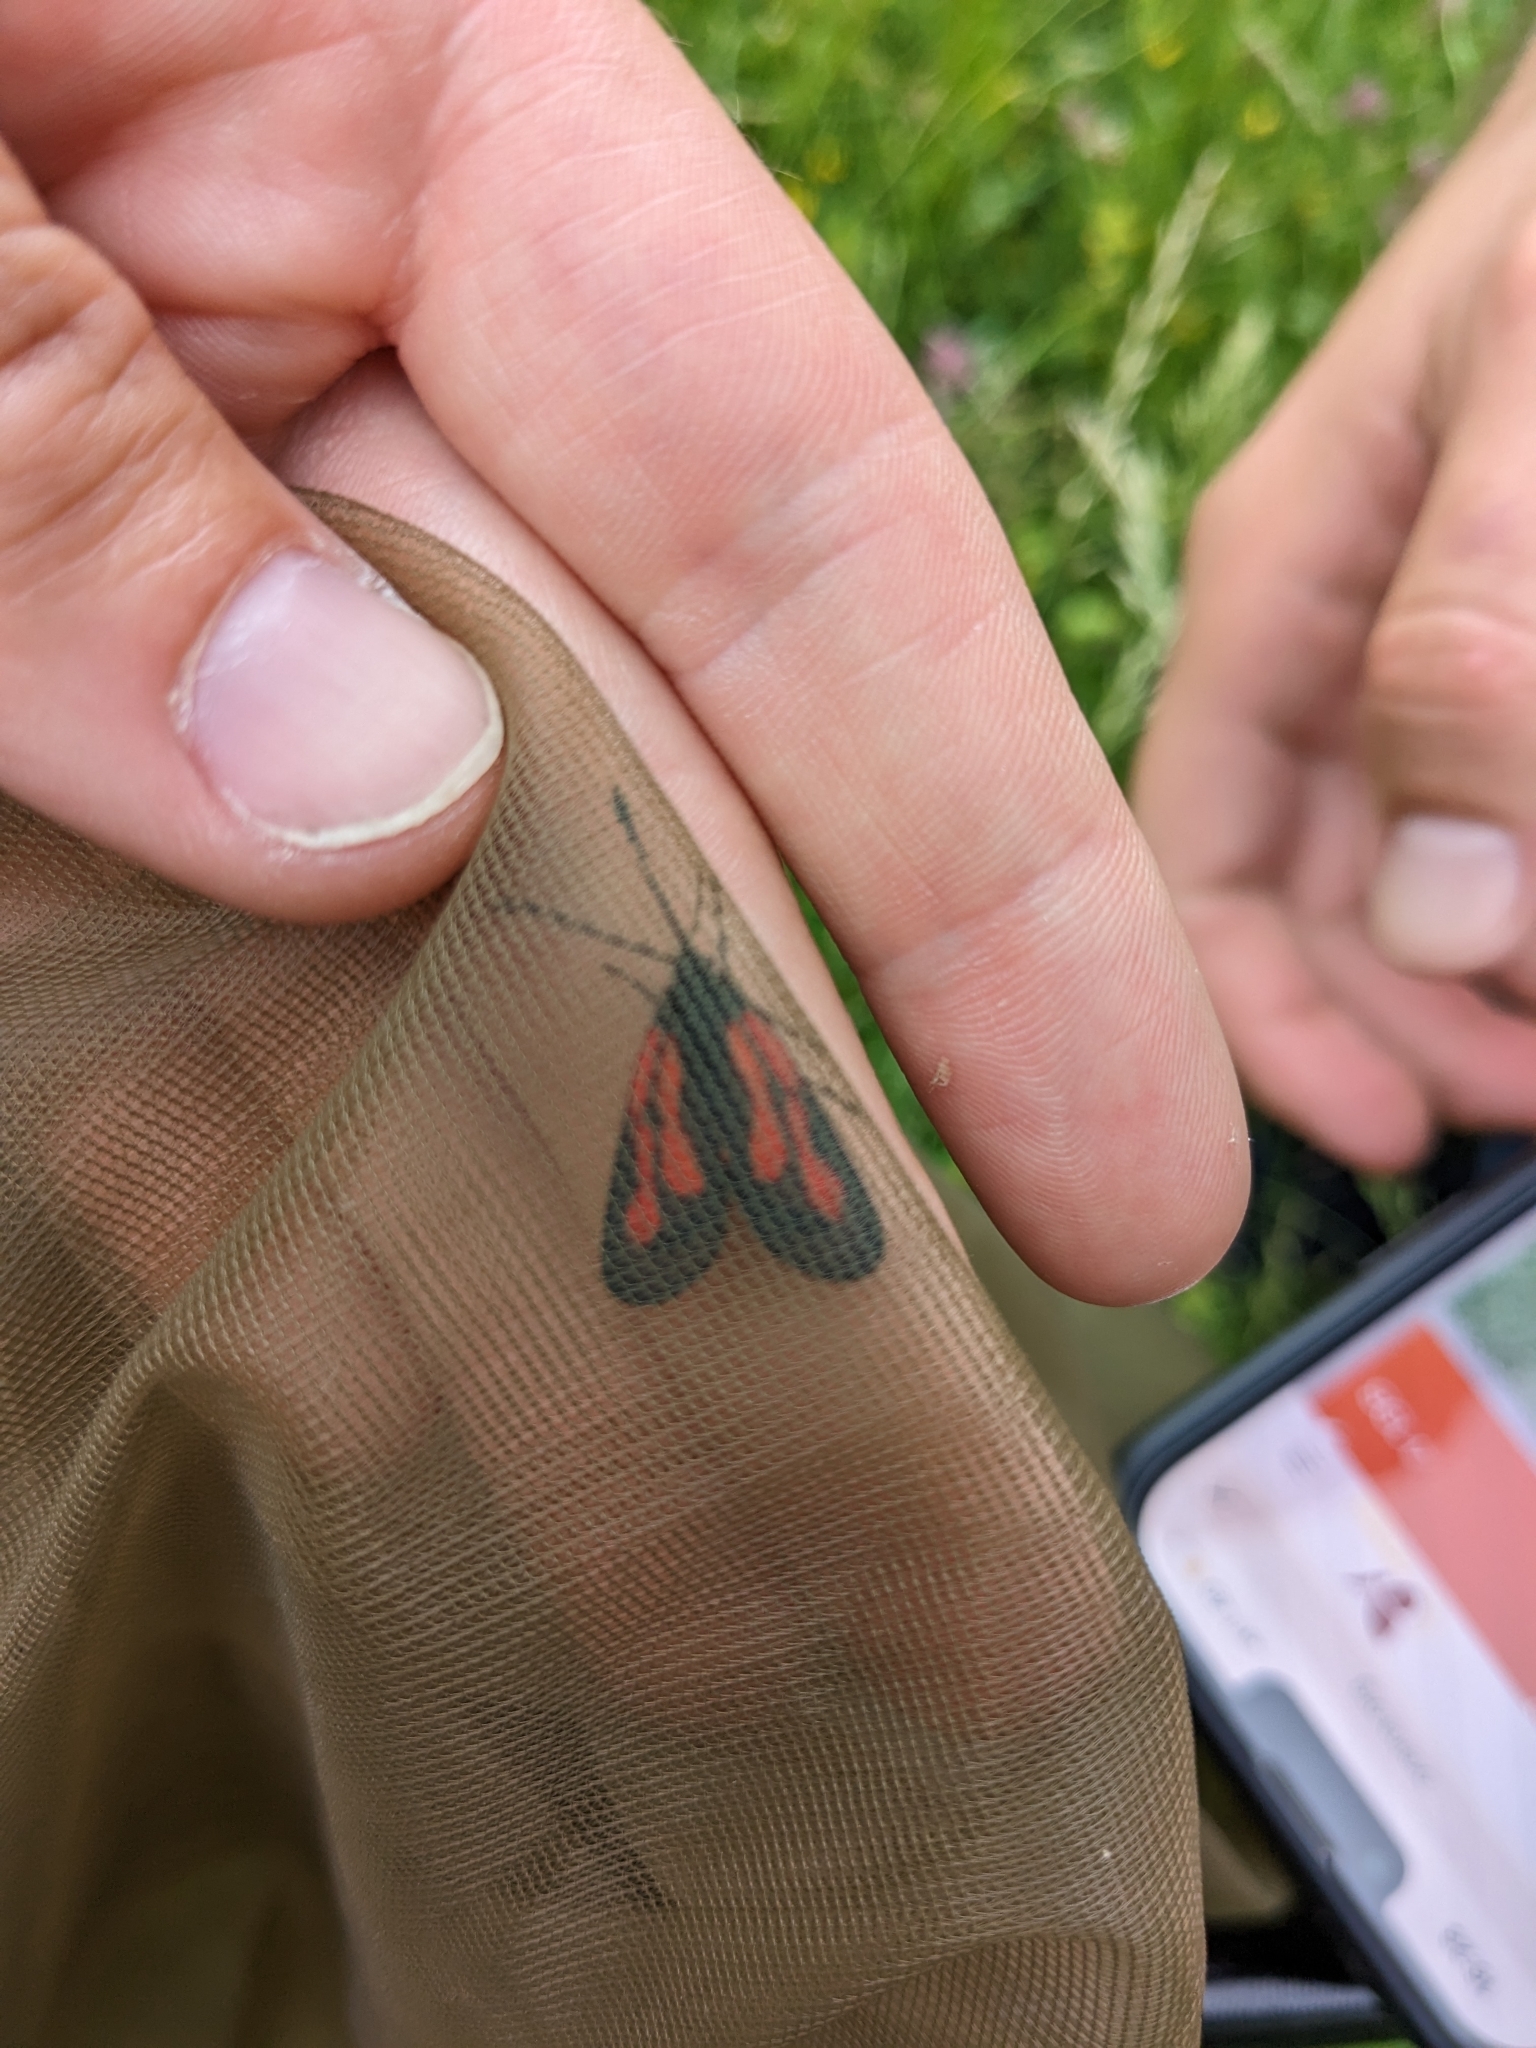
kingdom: Animalia
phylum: Arthropoda
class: Insecta
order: Lepidoptera
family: Zygaenidae
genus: Zygaena
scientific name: Zygaena romeo
